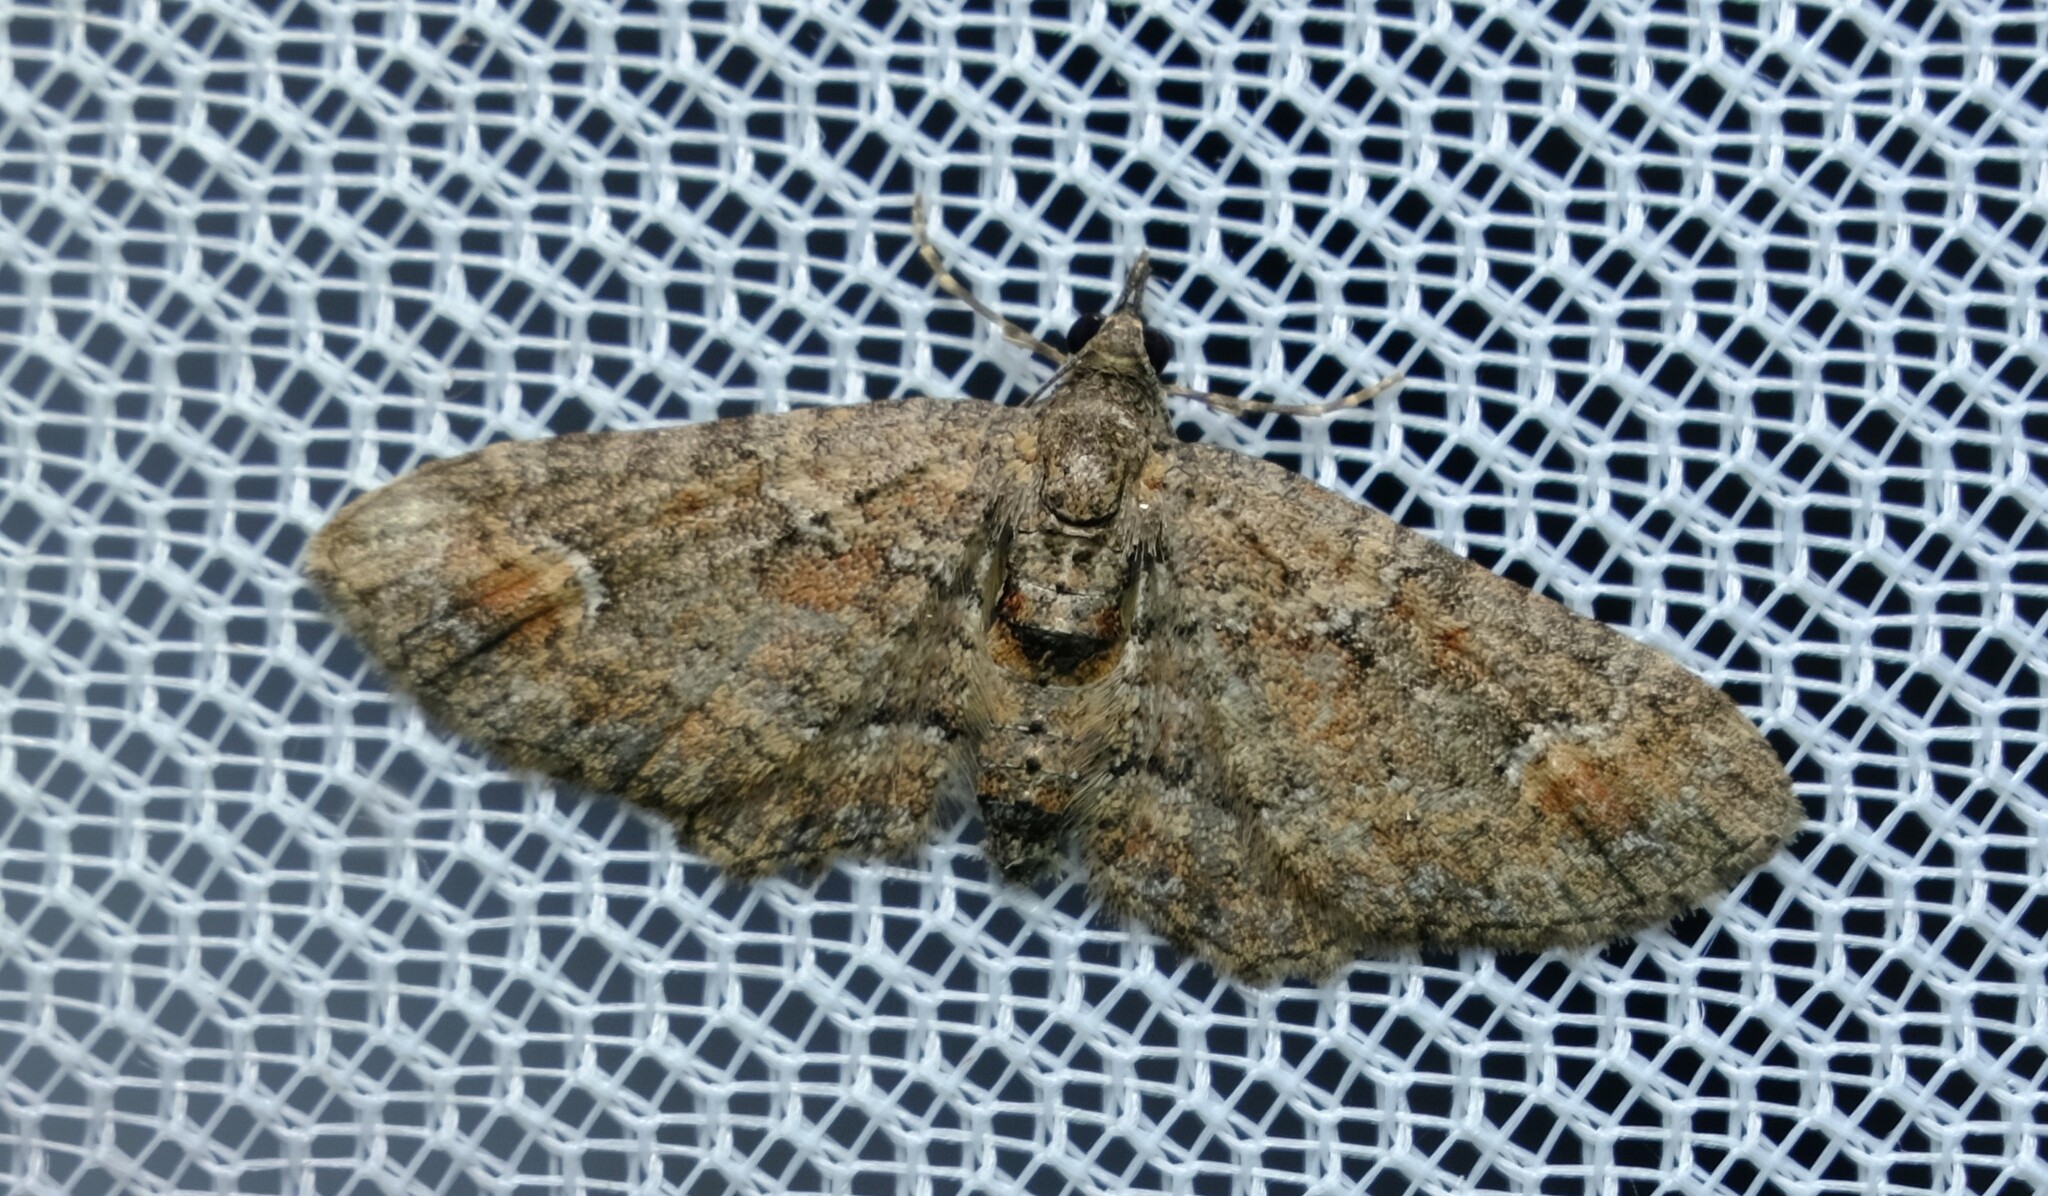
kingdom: Animalia
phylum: Arthropoda
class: Insecta
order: Lepidoptera
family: Geometridae
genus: Pasiphilodes
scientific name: Pasiphilodes testulata
